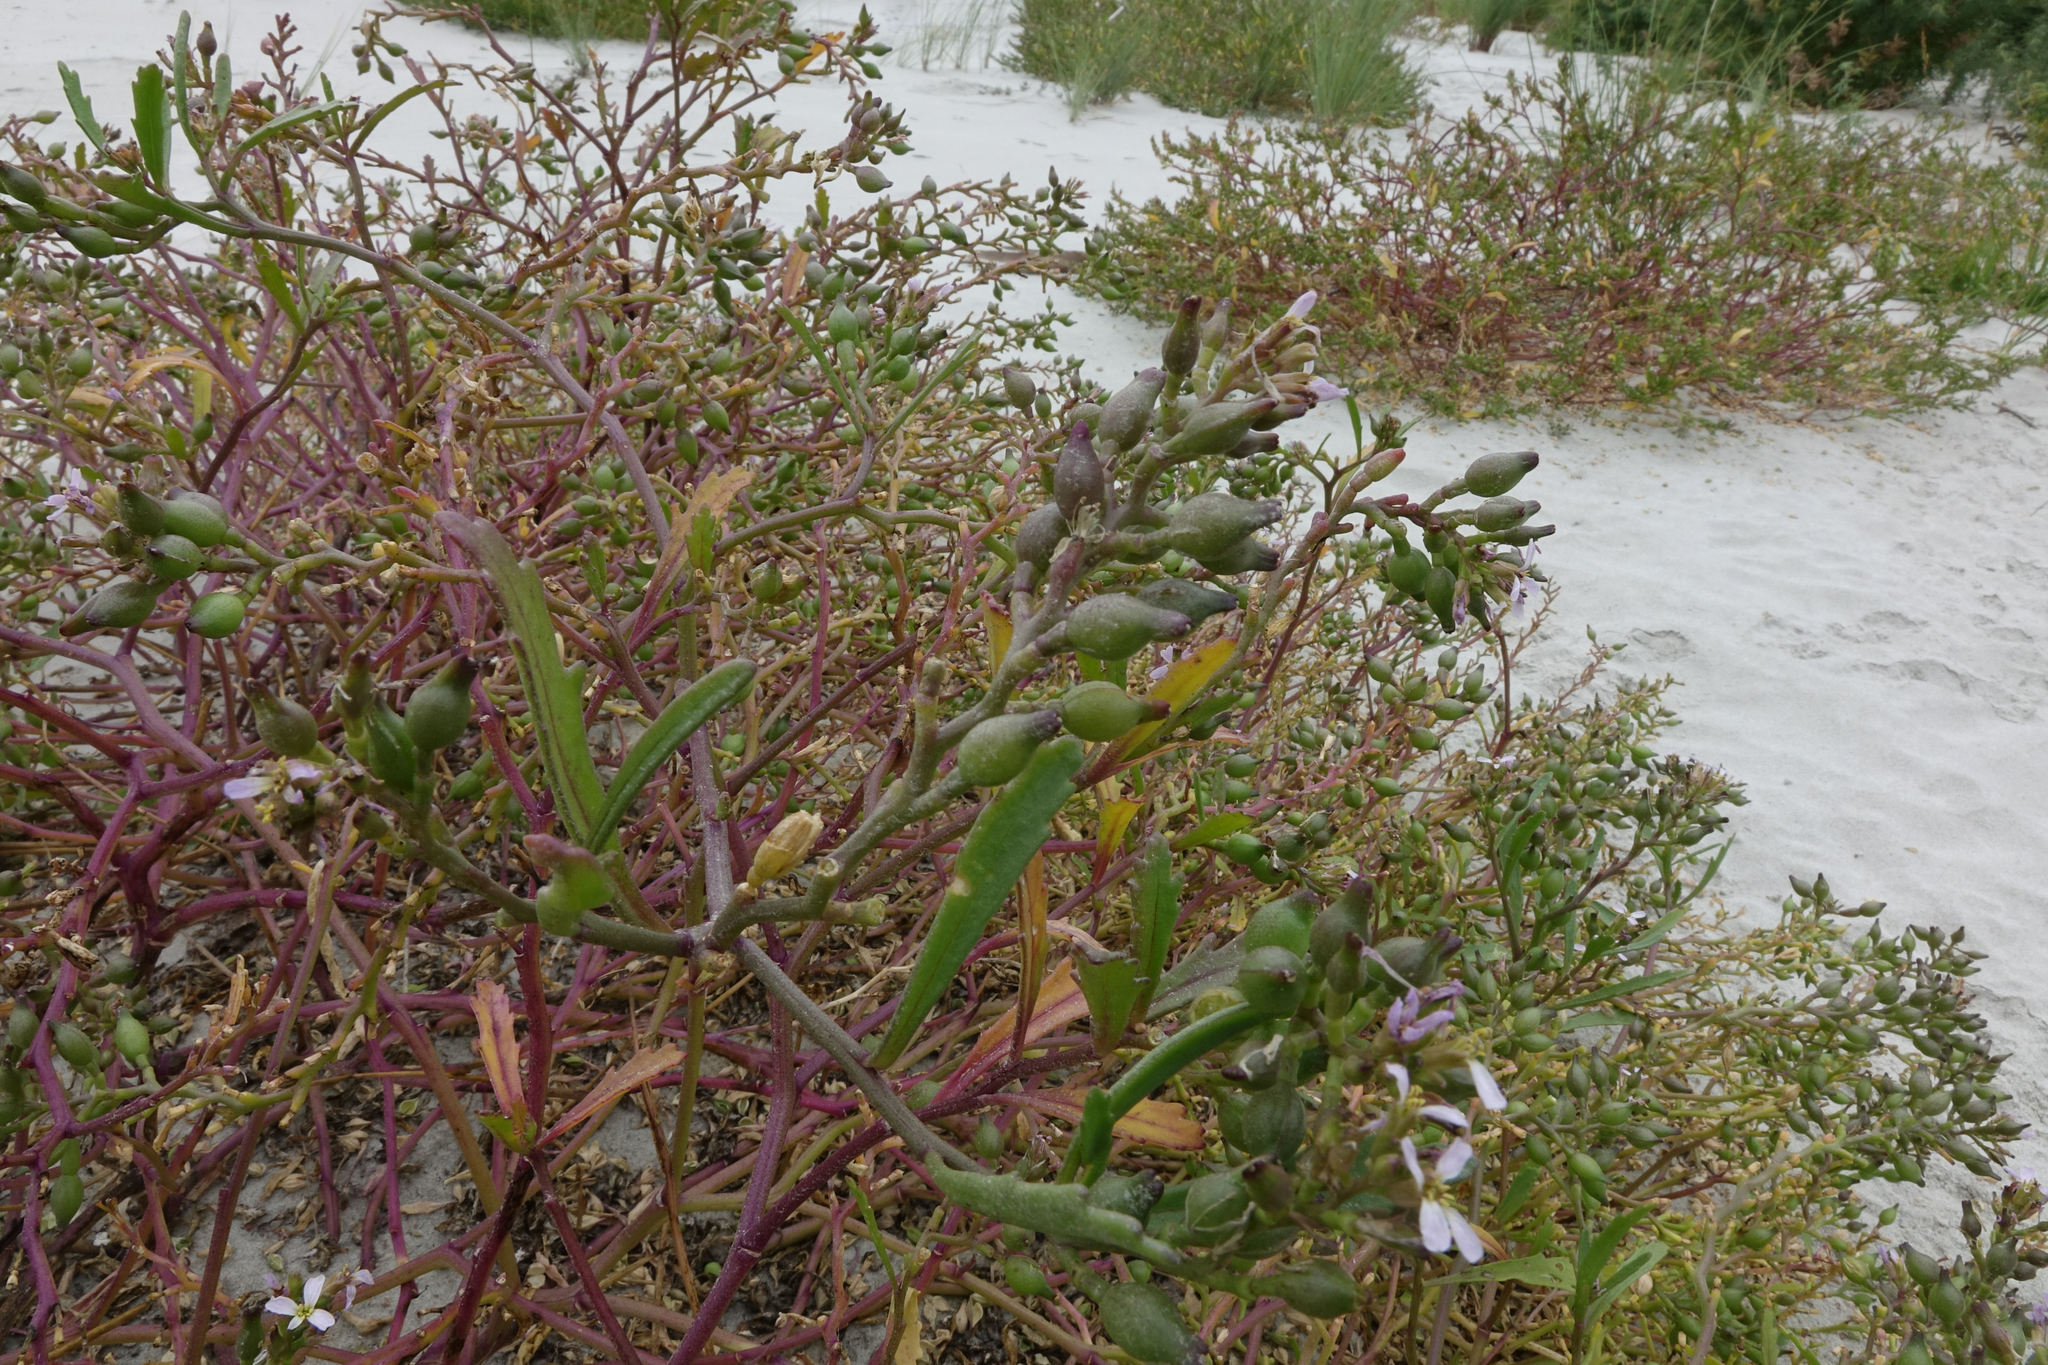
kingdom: Plantae
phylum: Tracheophyta
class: Magnoliopsida
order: Brassicales
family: Brassicaceae
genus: Cakile
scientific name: Cakile edentula
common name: American sea rocket
